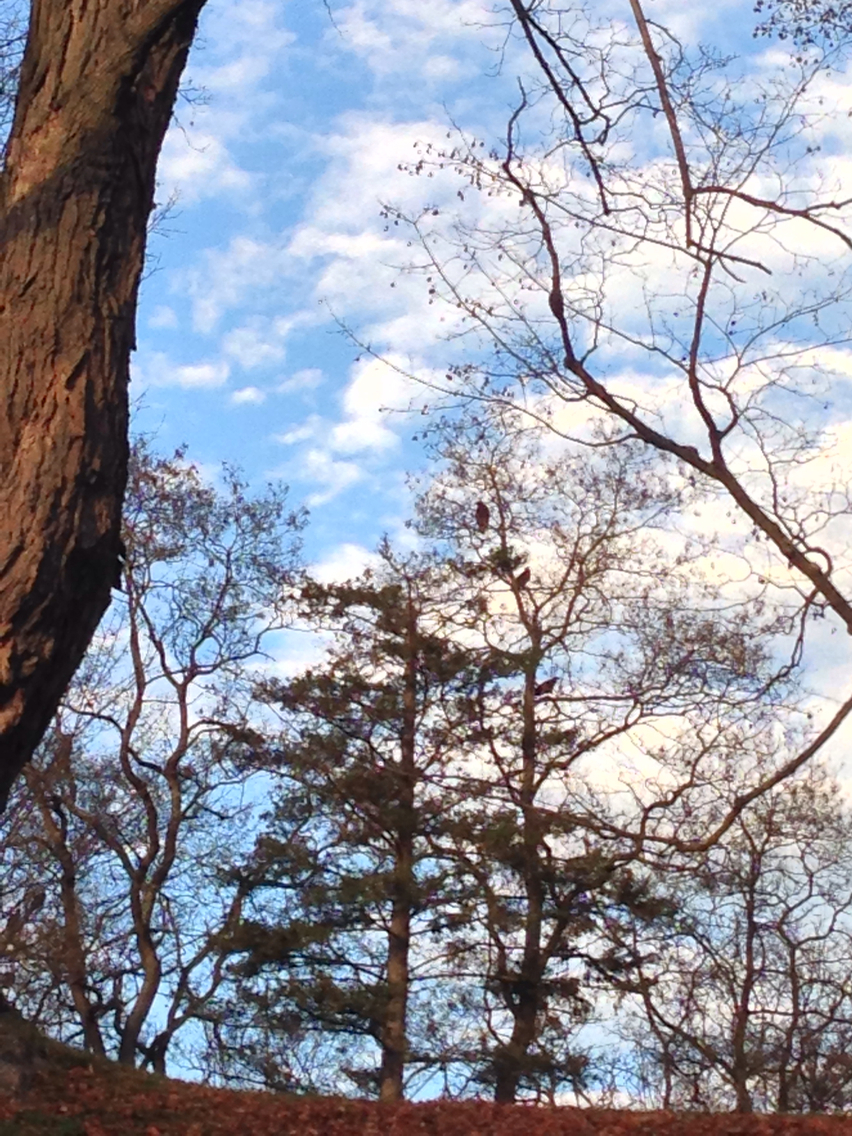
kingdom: Animalia
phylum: Chordata
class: Aves
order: Accipitriformes
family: Cathartidae
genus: Cathartes
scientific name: Cathartes aura
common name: Turkey vulture
